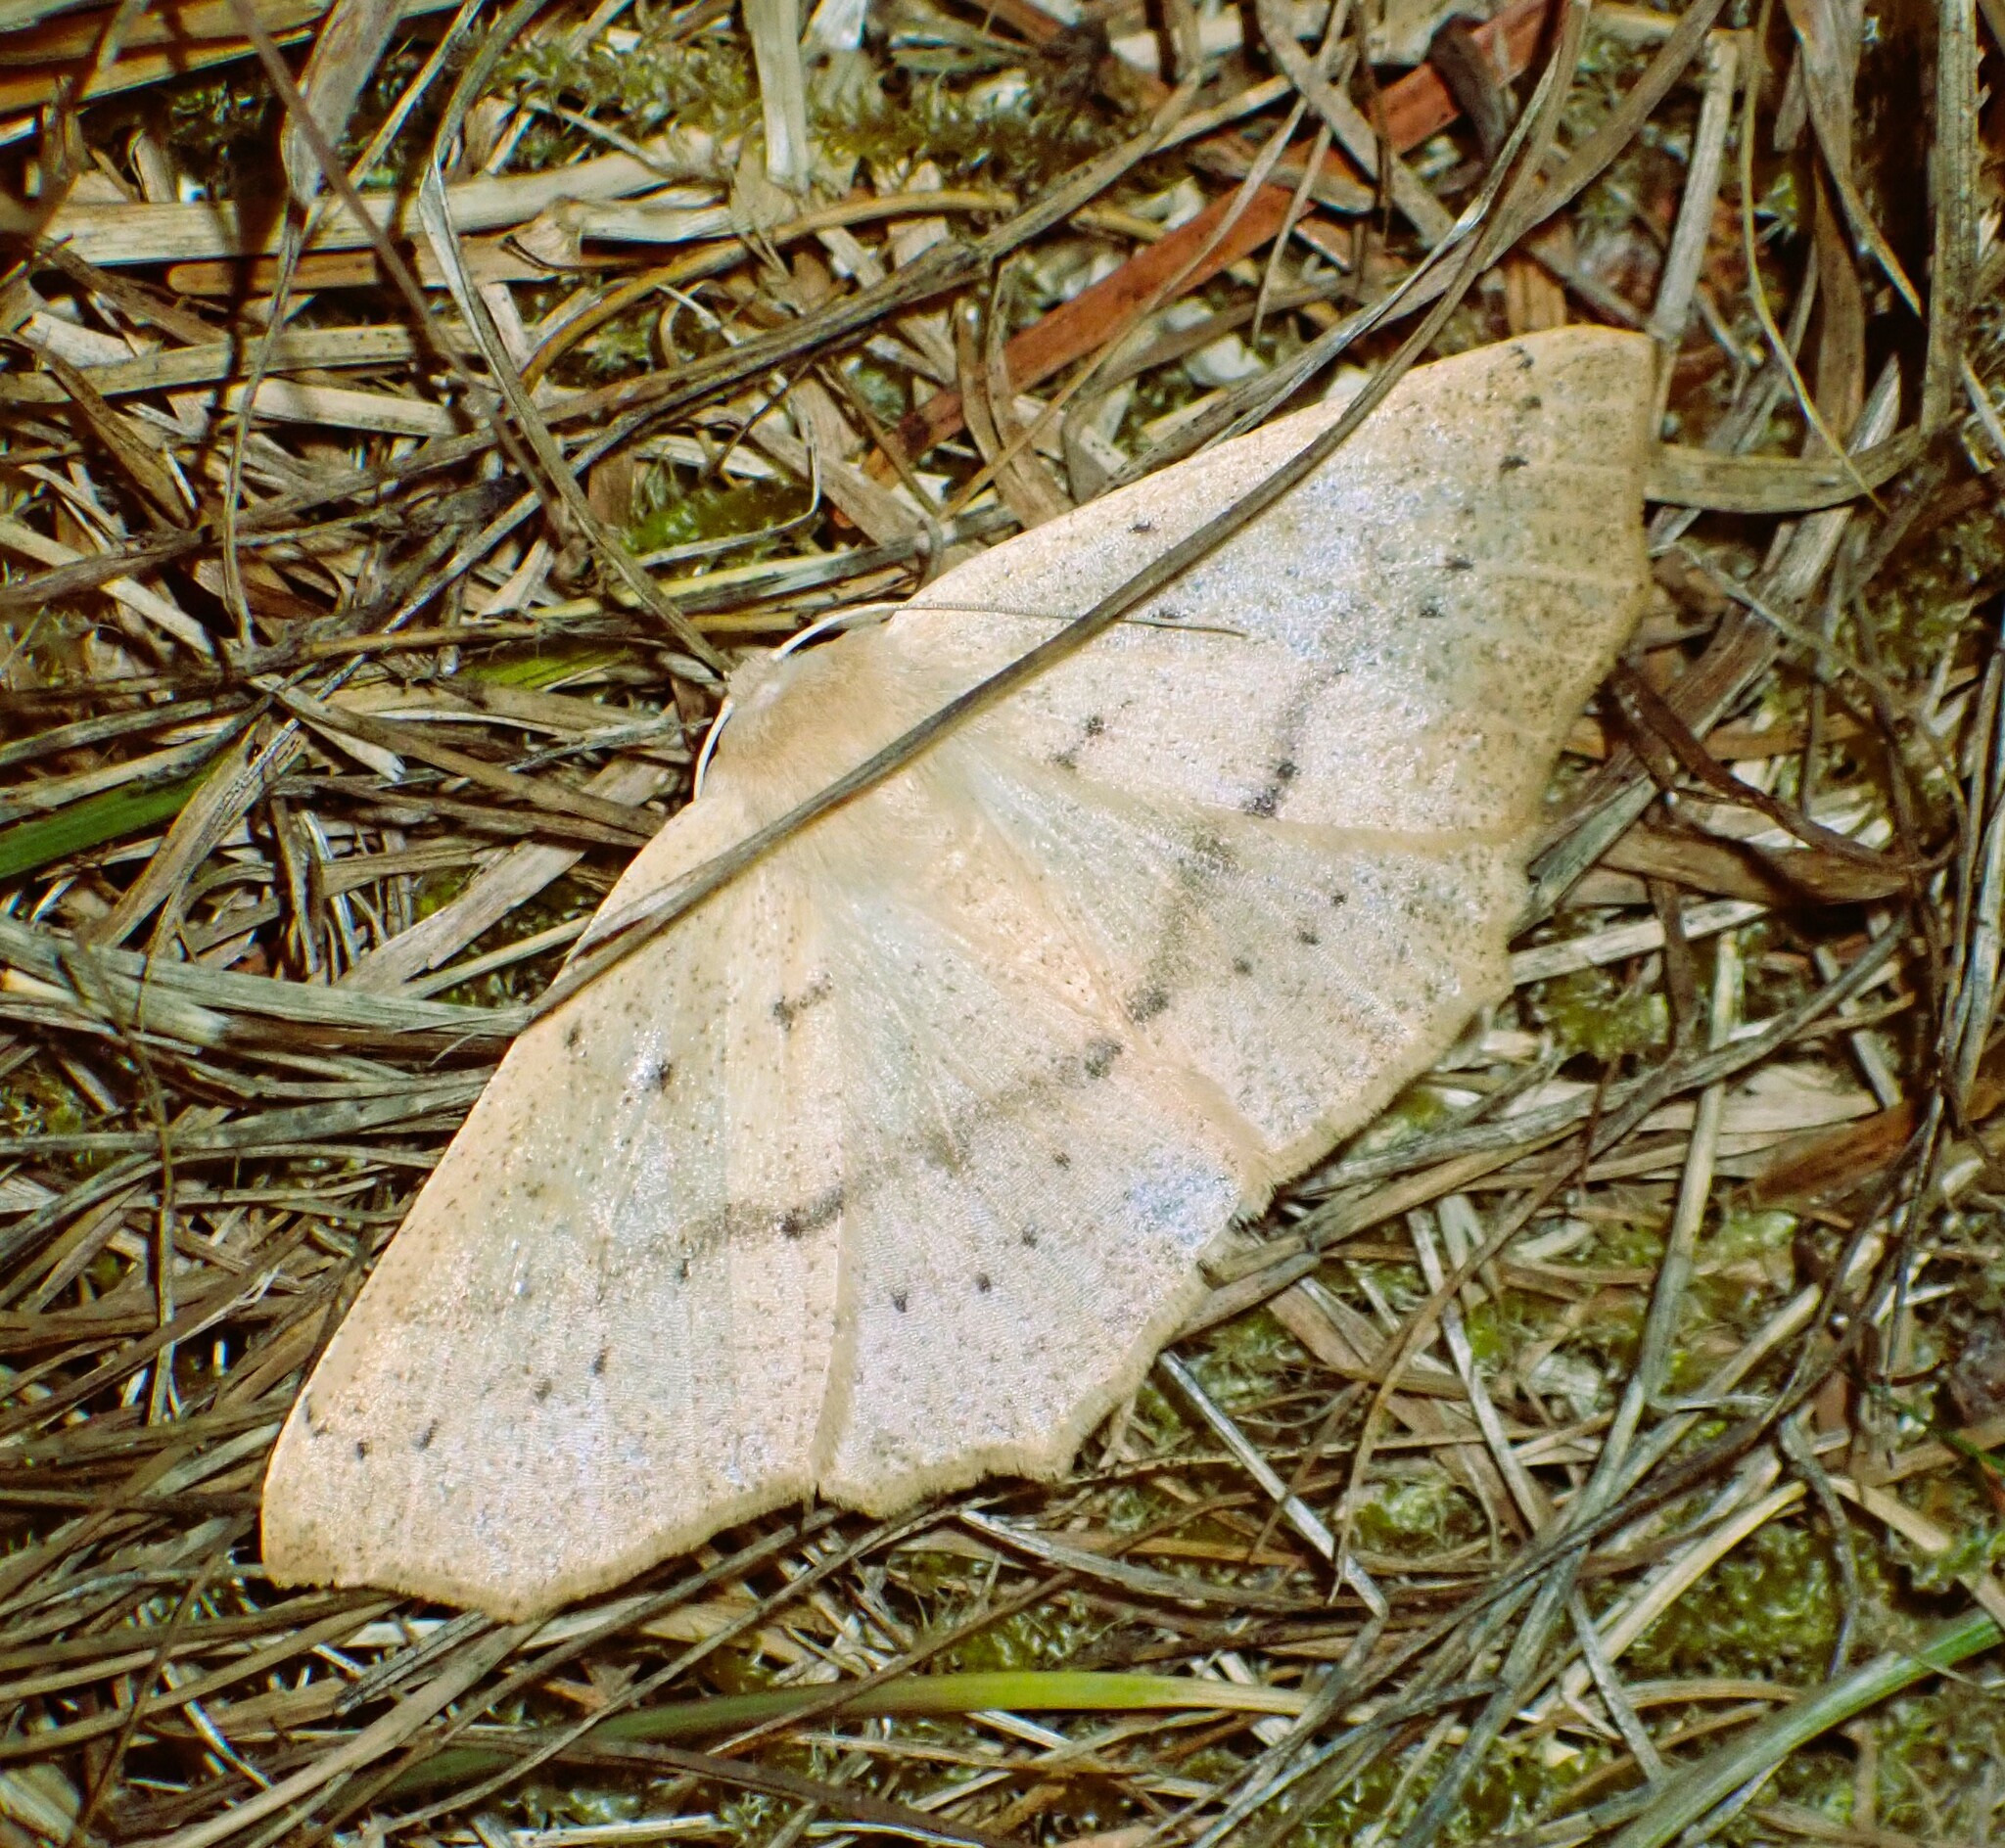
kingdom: Animalia
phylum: Arthropoda
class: Insecta
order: Lepidoptera
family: Geometridae
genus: Sabulodes
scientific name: Sabulodes aegrotata
